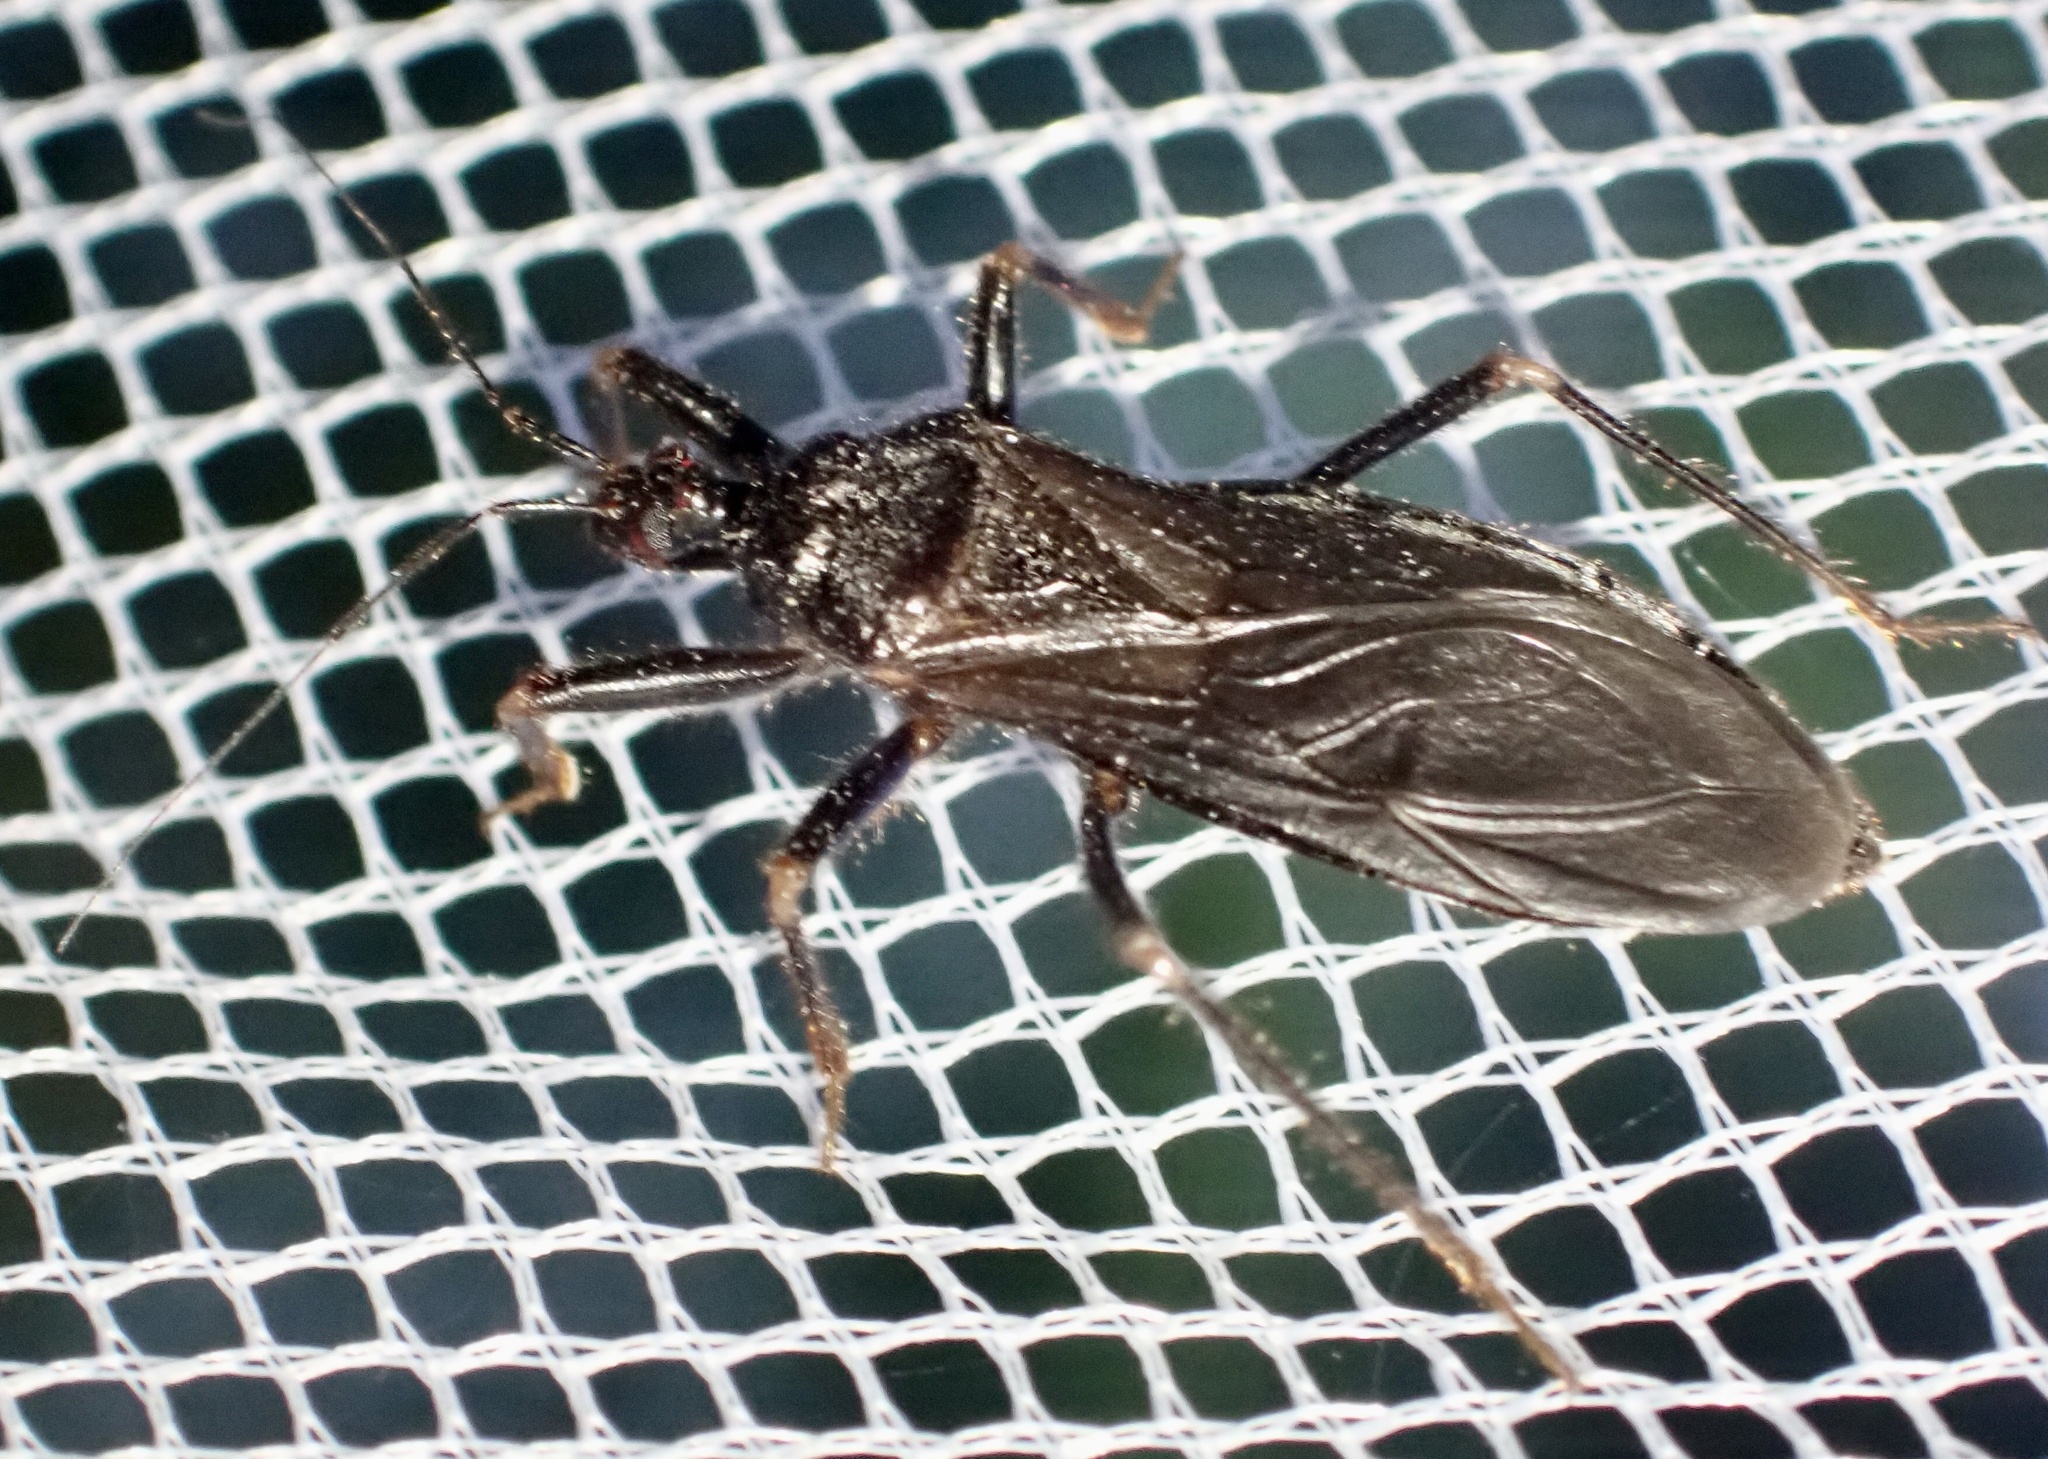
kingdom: Animalia
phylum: Arthropoda
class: Insecta
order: Hemiptera
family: Reduviidae
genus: Reduvius
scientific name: Reduvius personatus
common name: Masked hunter
